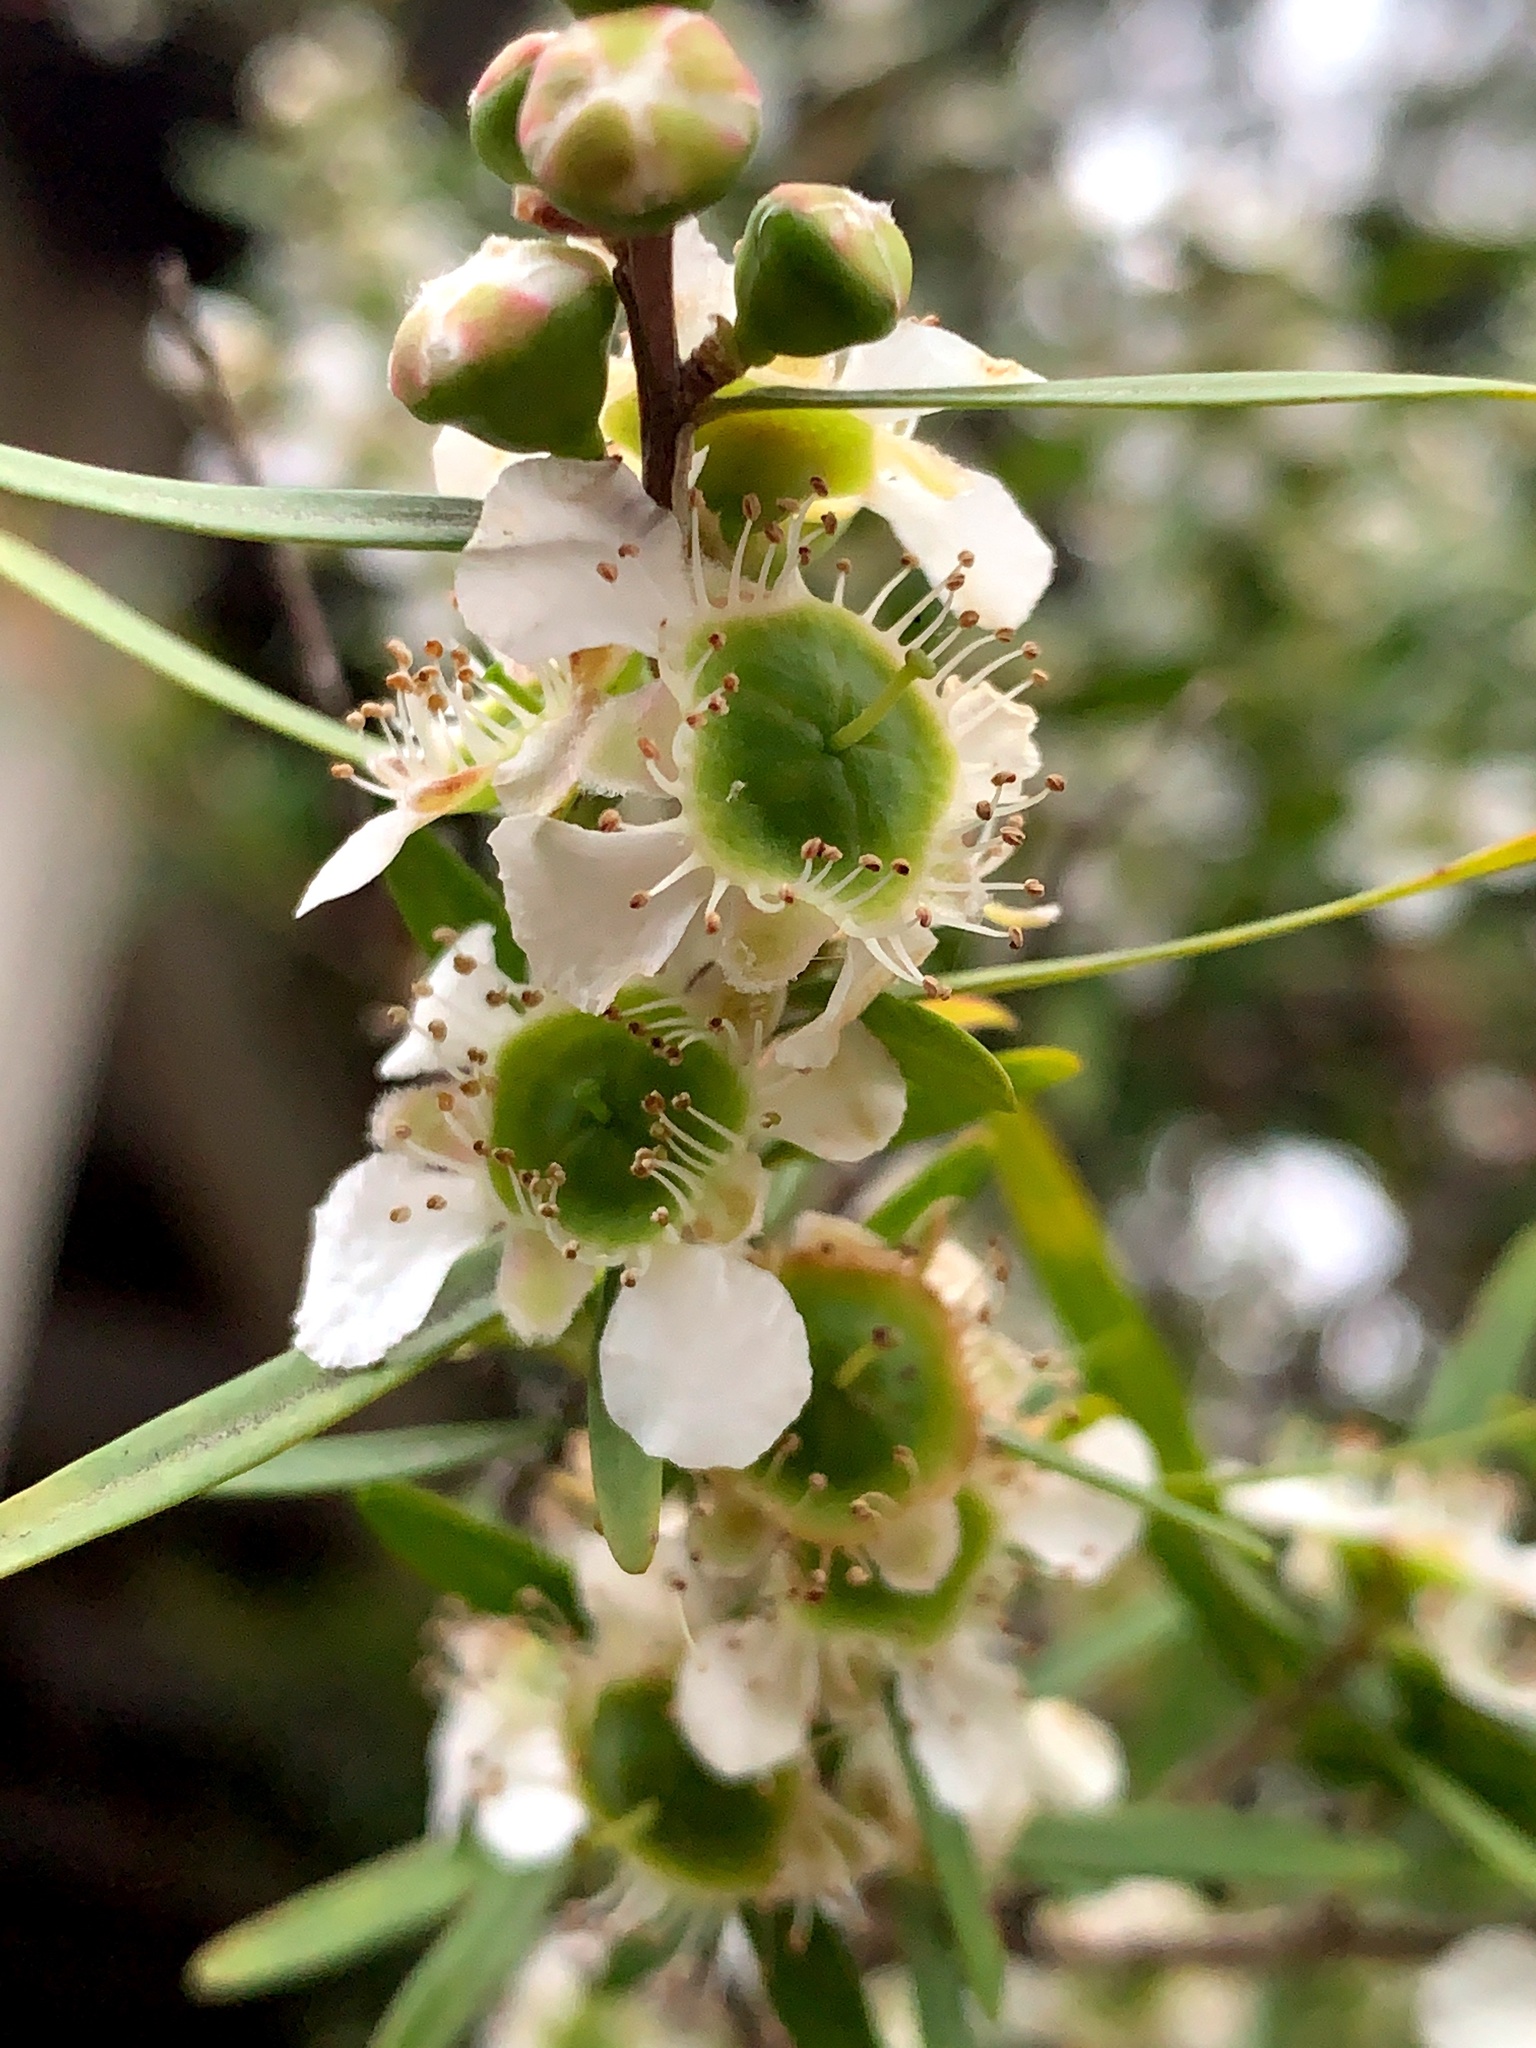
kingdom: Plantae
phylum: Tracheophyta
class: Magnoliopsida
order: Myrtales
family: Myrtaceae
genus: Leptospermum
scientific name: Leptospermum polygalifolium
